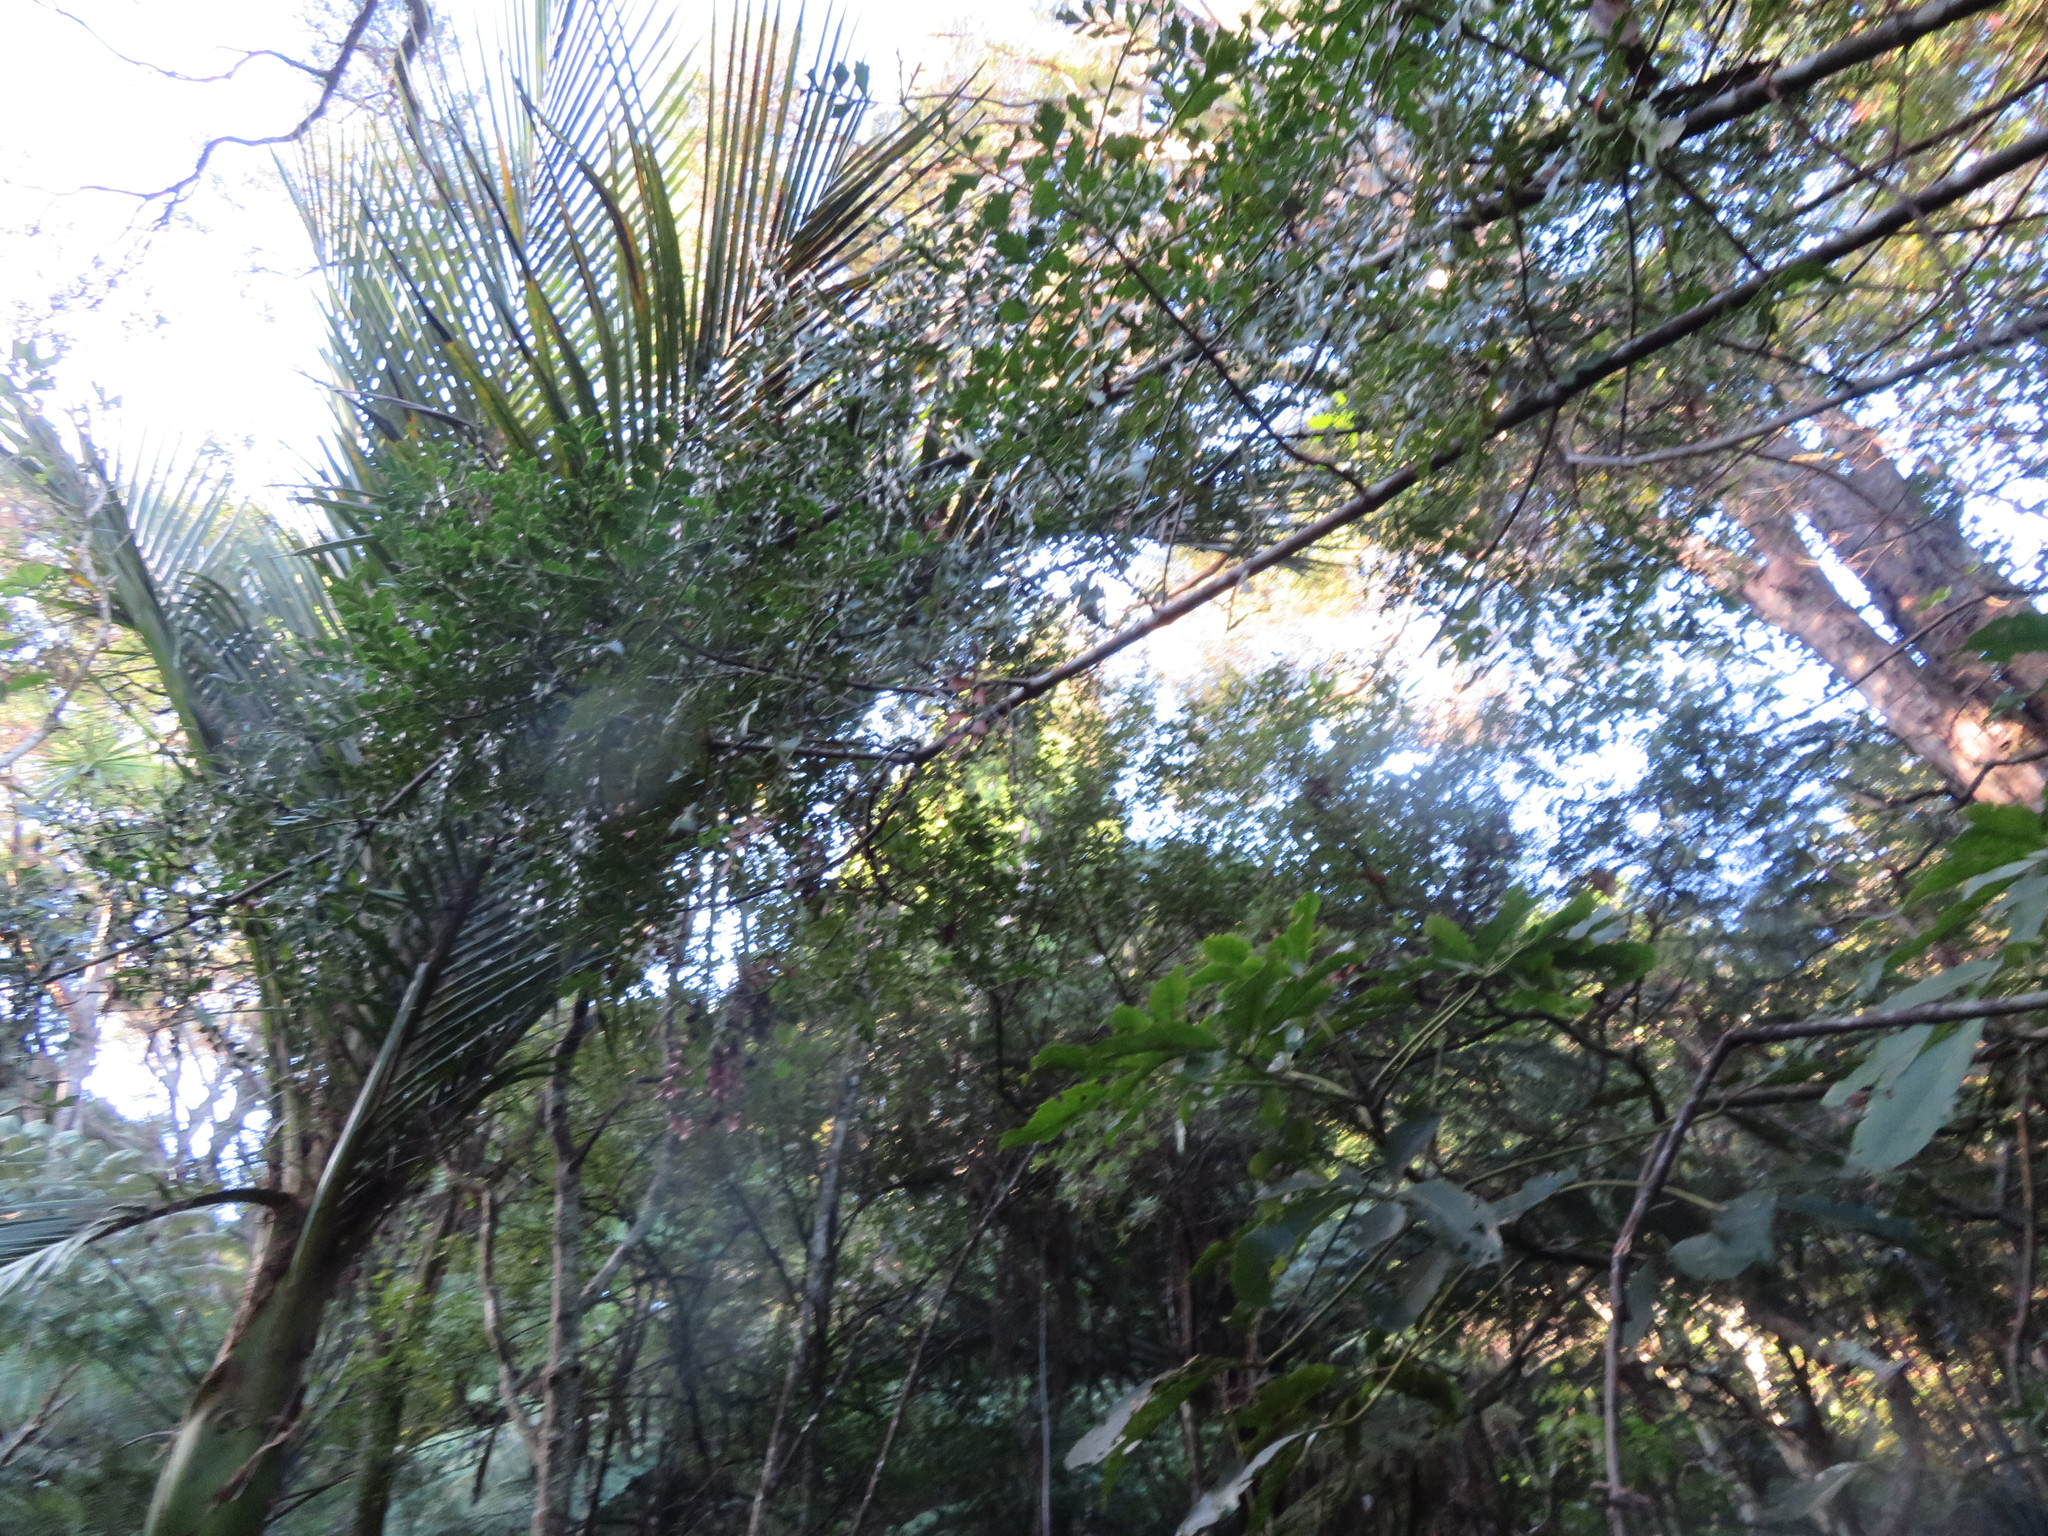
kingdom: Plantae
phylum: Tracheophyta
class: Liliopsida
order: Arecales
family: Arecaceae
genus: Rhopalostylis
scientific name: Rhopalostylis sapida
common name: Feather-duster palm
